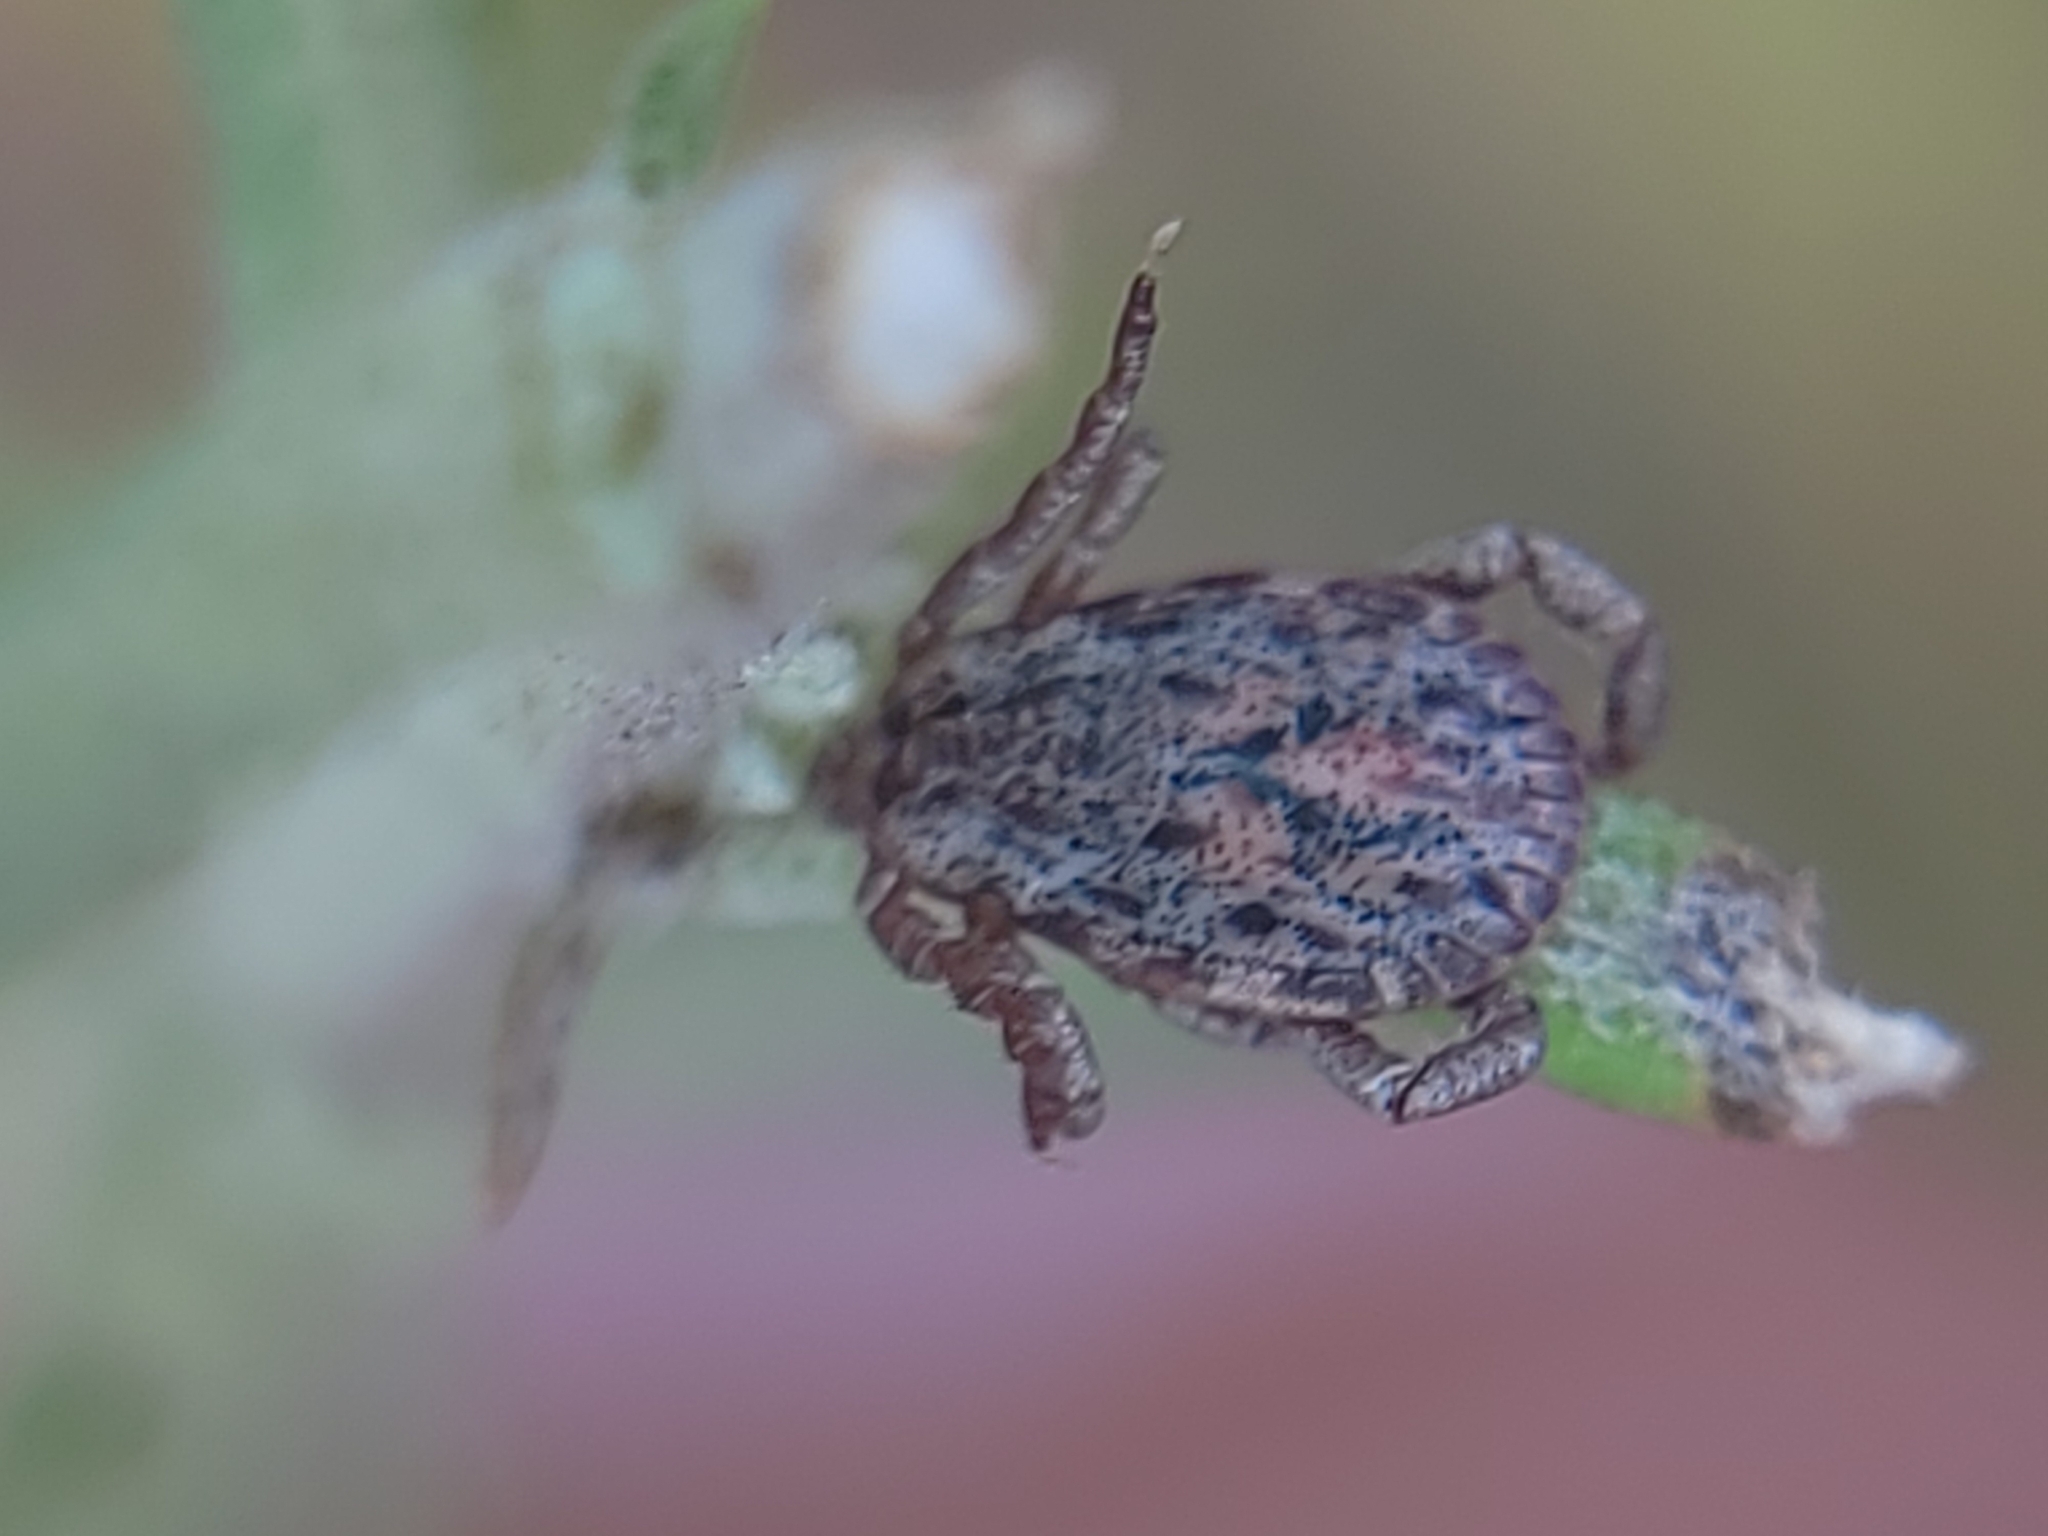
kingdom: Animalia
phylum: Arthropoda
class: Arachnida
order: Ixodida
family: Ixodidae
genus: Dermacentor
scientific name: Dermacentor occidentalis
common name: Net tick
